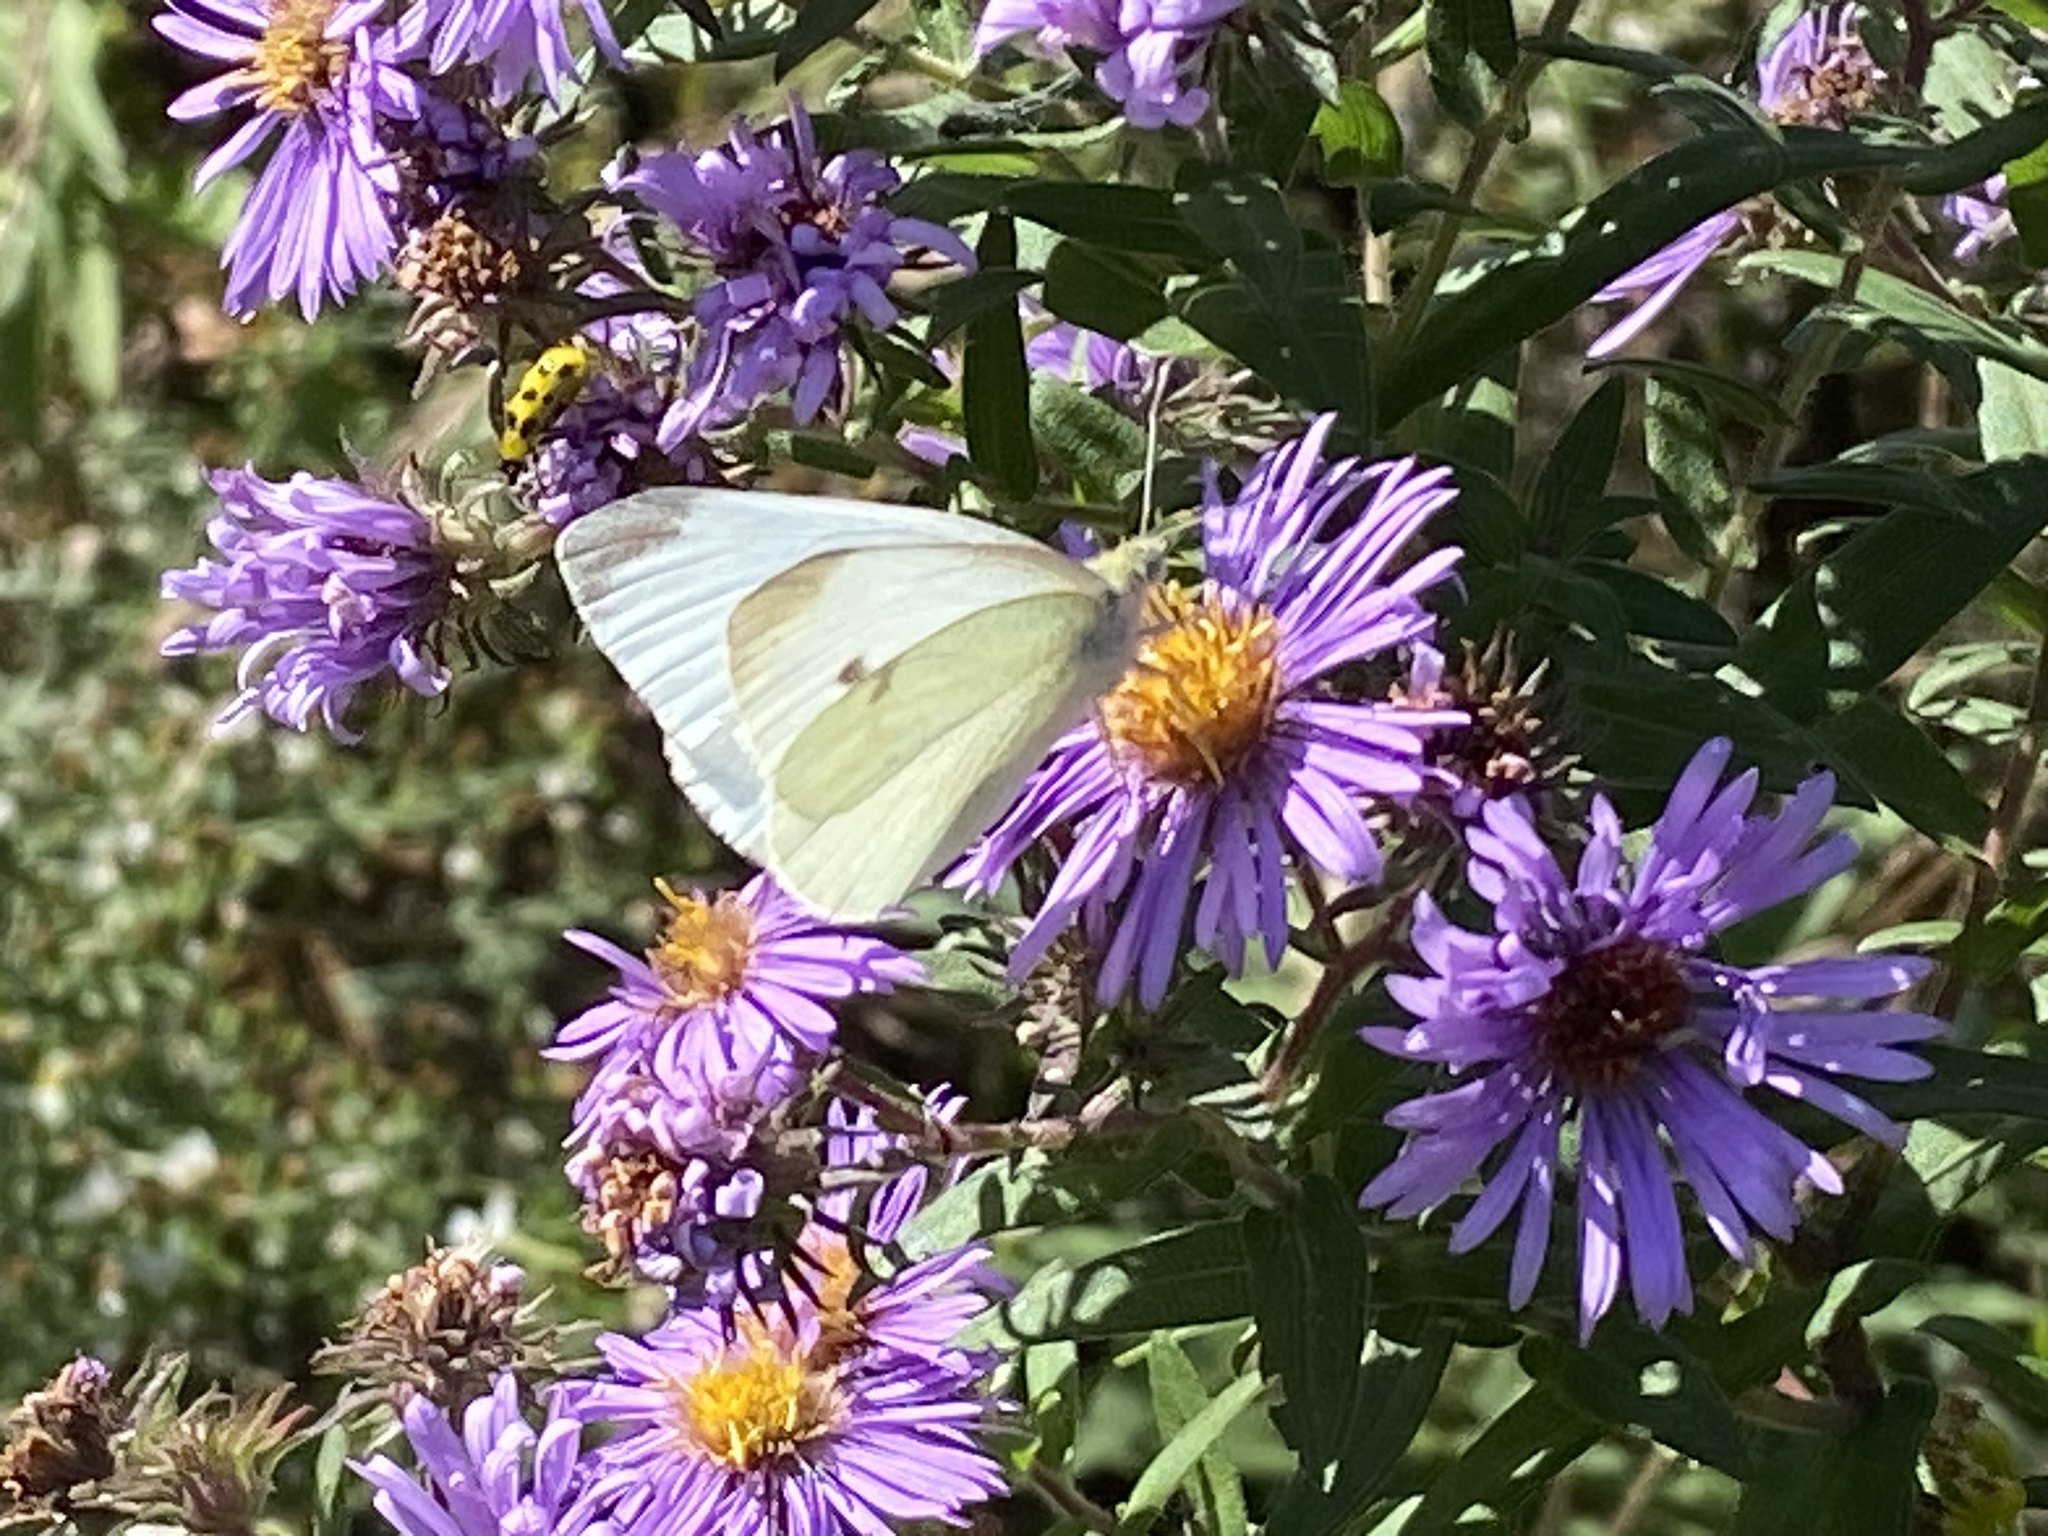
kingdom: Animalia
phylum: Arthropoda
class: Insecta
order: Lepidoptera
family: Pieridae
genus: Pieris
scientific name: Pieris rapae
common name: Small white
